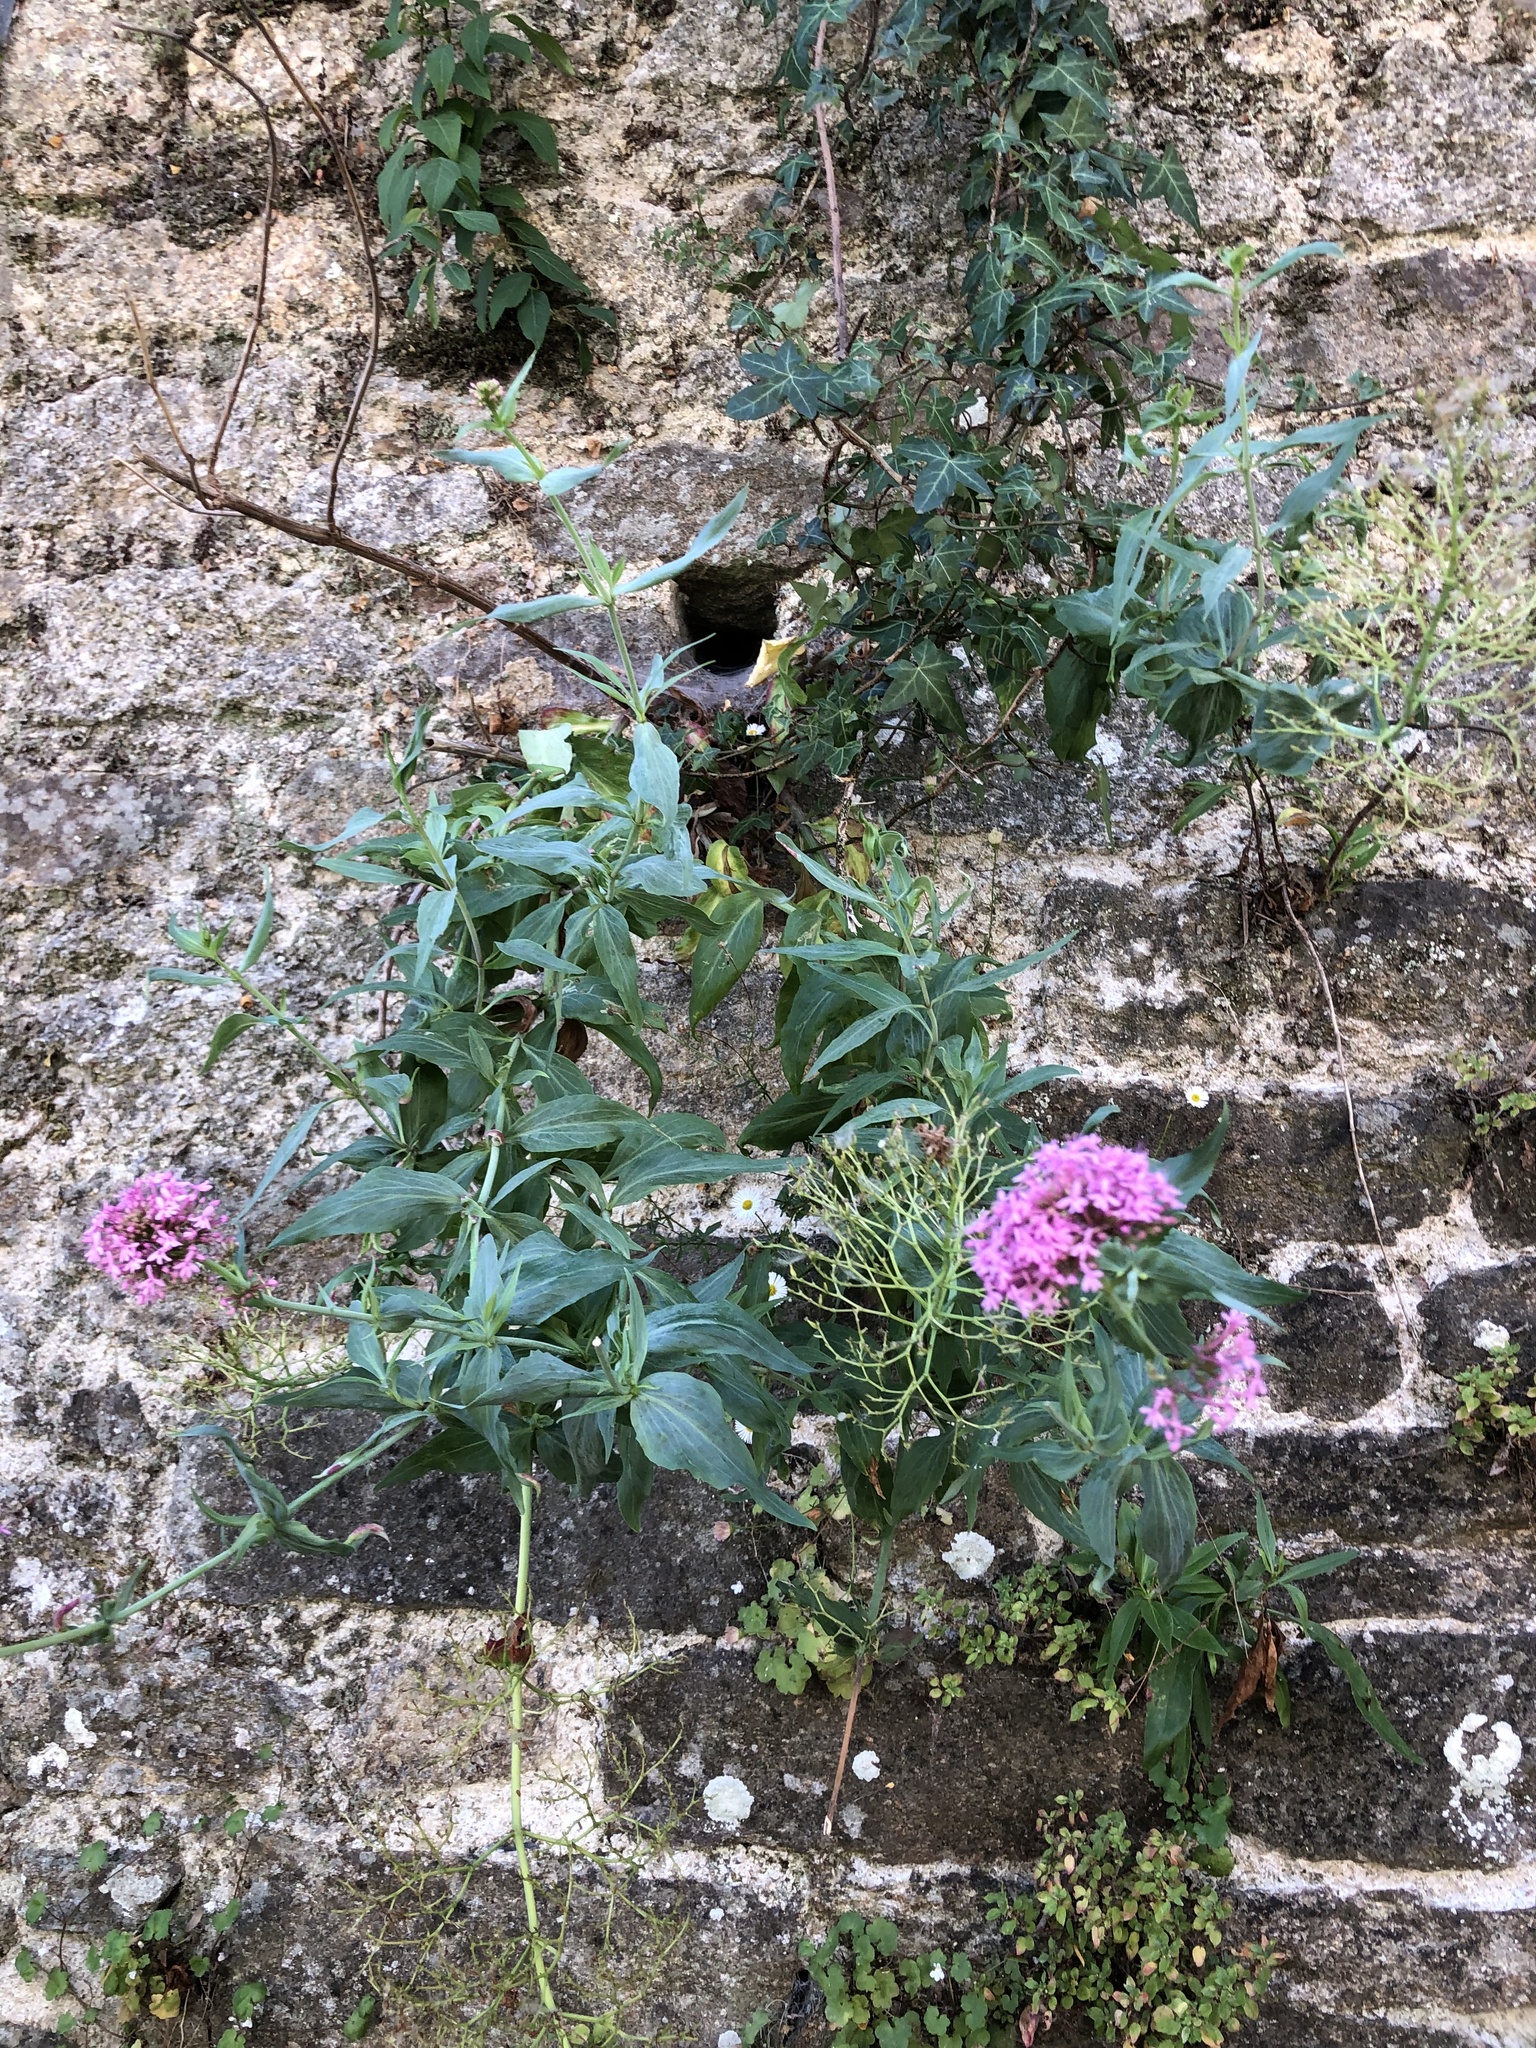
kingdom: Plantae
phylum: Tracheophyta
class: Magnoliopsida
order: Dipsacales
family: Caprifoliaceae
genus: Centranthus
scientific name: Centranthus ruber
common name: Red valerian
